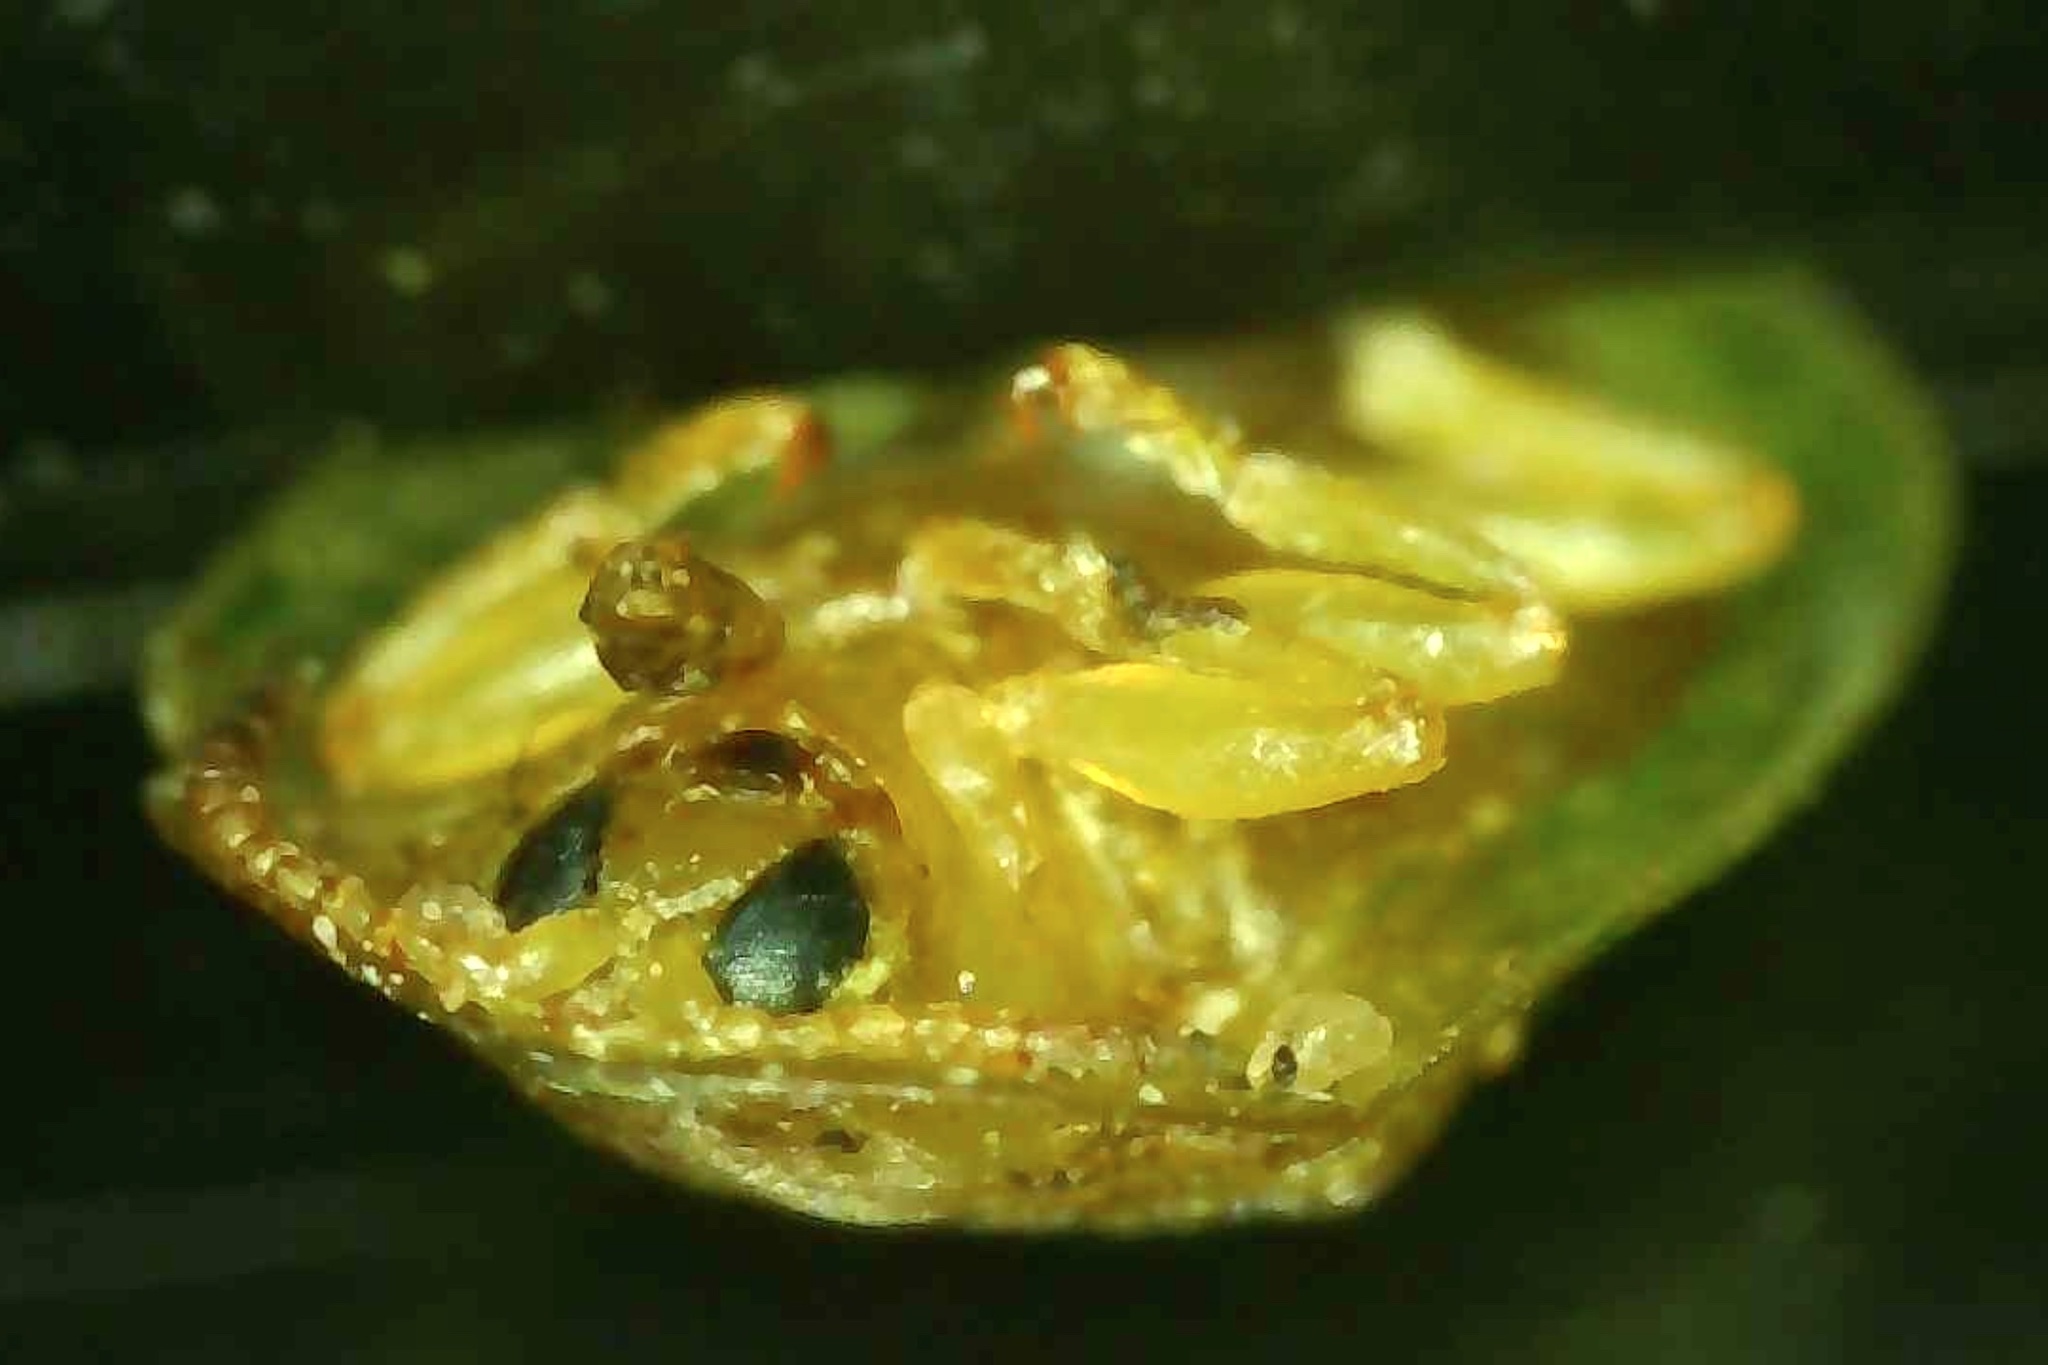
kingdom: Animalia
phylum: Arthropoda
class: Insecta
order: Coleoptera
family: Chrysomelidae
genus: Gratiana
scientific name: Gratiana pallidula
